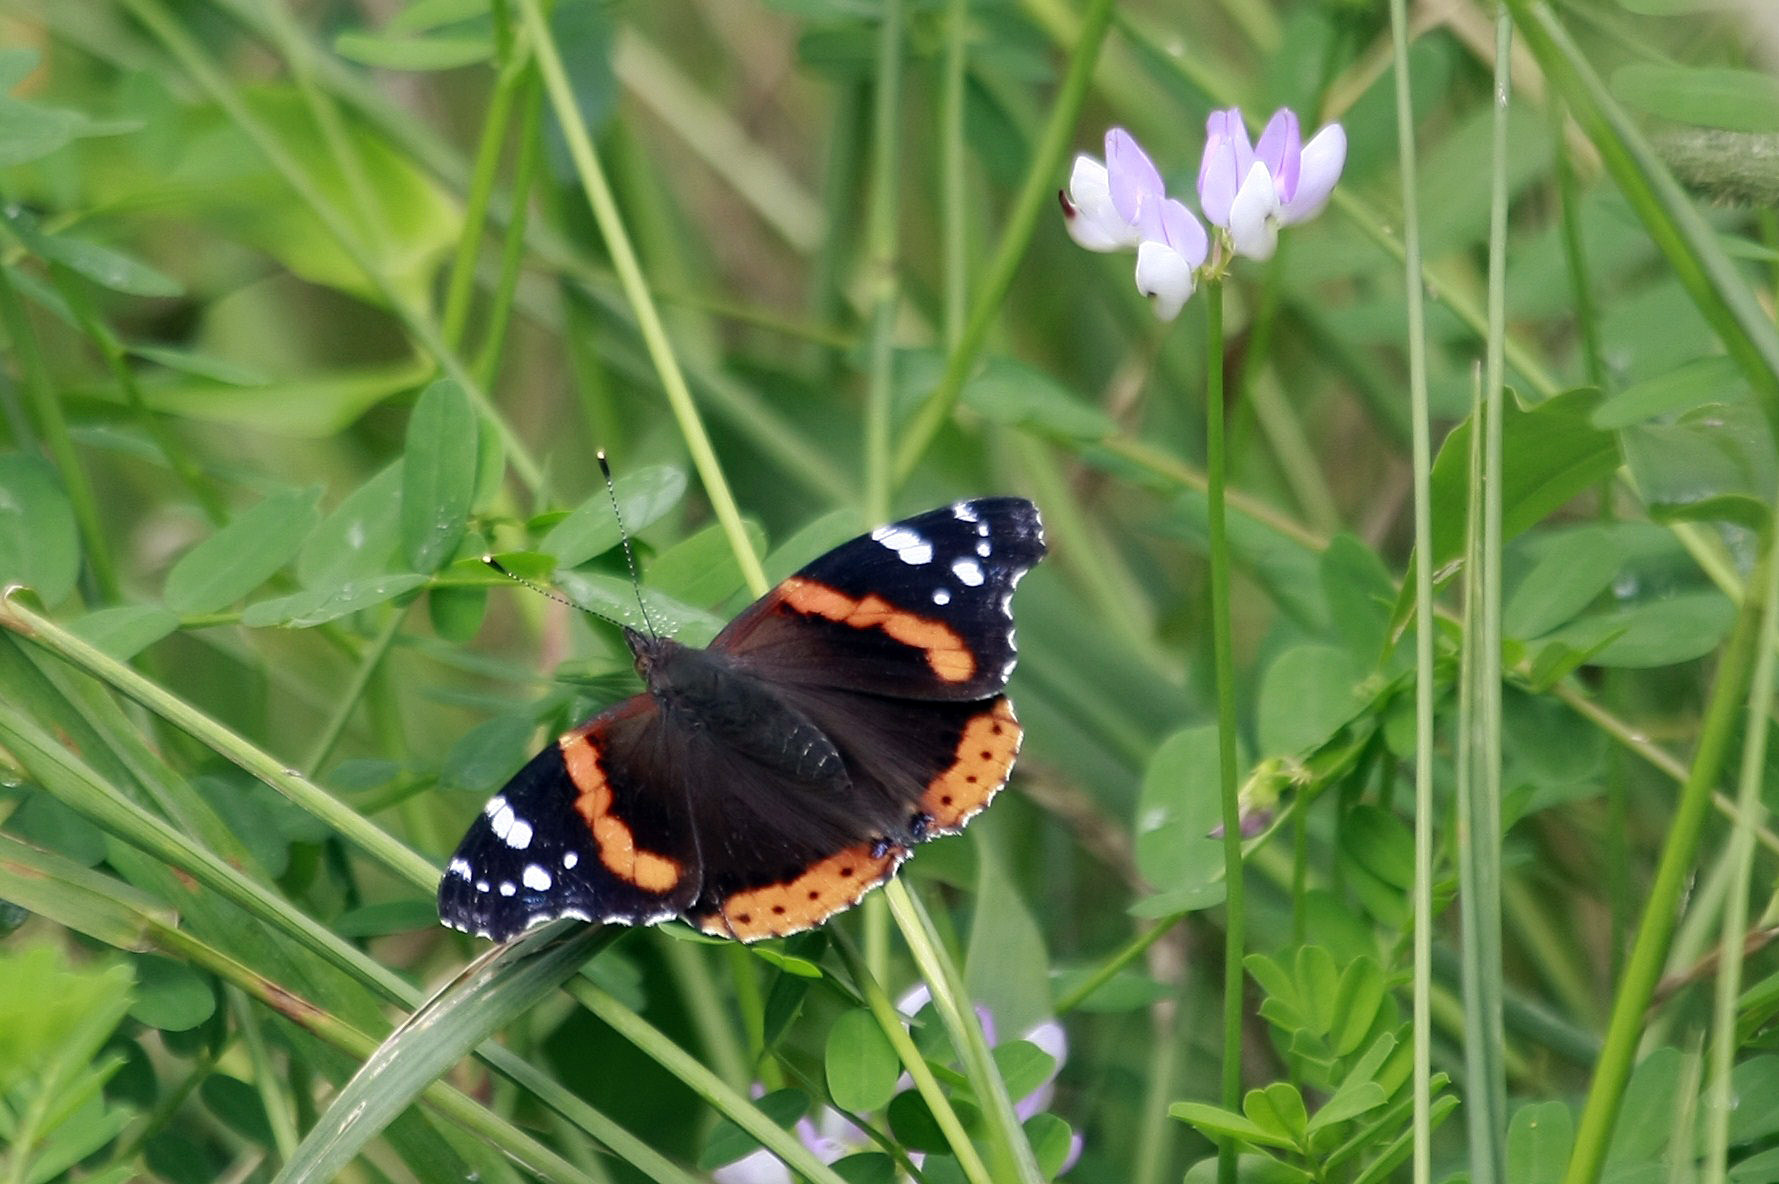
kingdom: Animalia
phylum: Arthropoda
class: Insecta
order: Lepidoptera
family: Nymphalidae
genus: Vanessa
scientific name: Vanessa atalanta
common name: Red admiral
